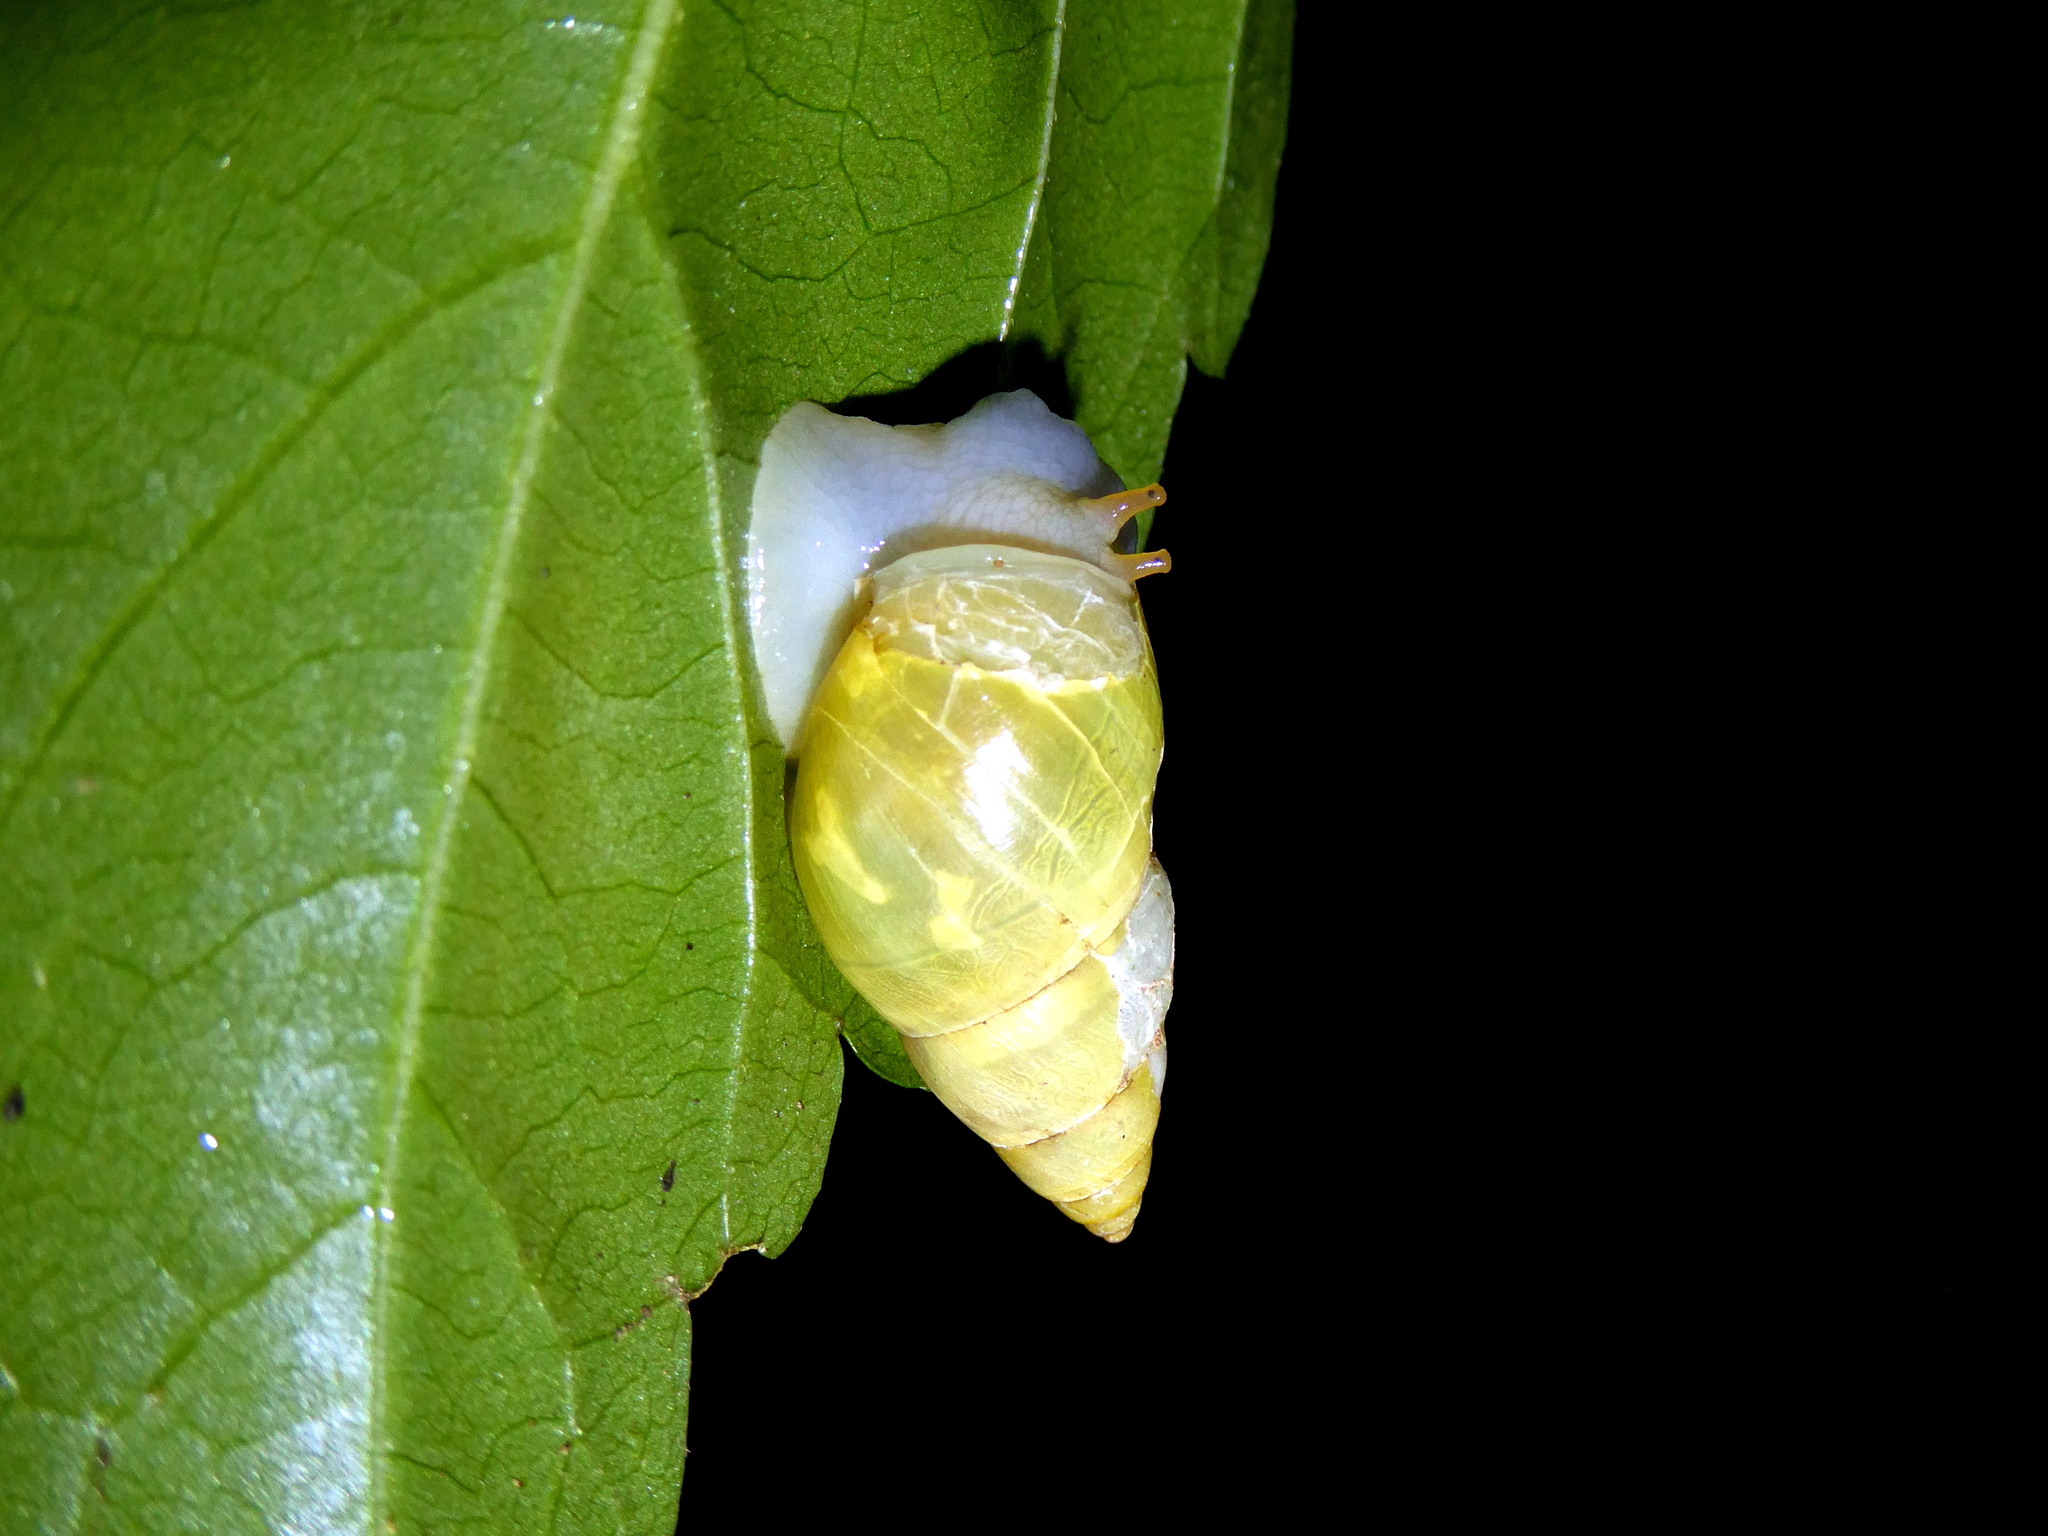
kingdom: Animalia
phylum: Mollusca
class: Gastropoda
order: Stylommatophora
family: Bulimulidae
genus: Drymaeus
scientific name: Drymaeus sulphureus
